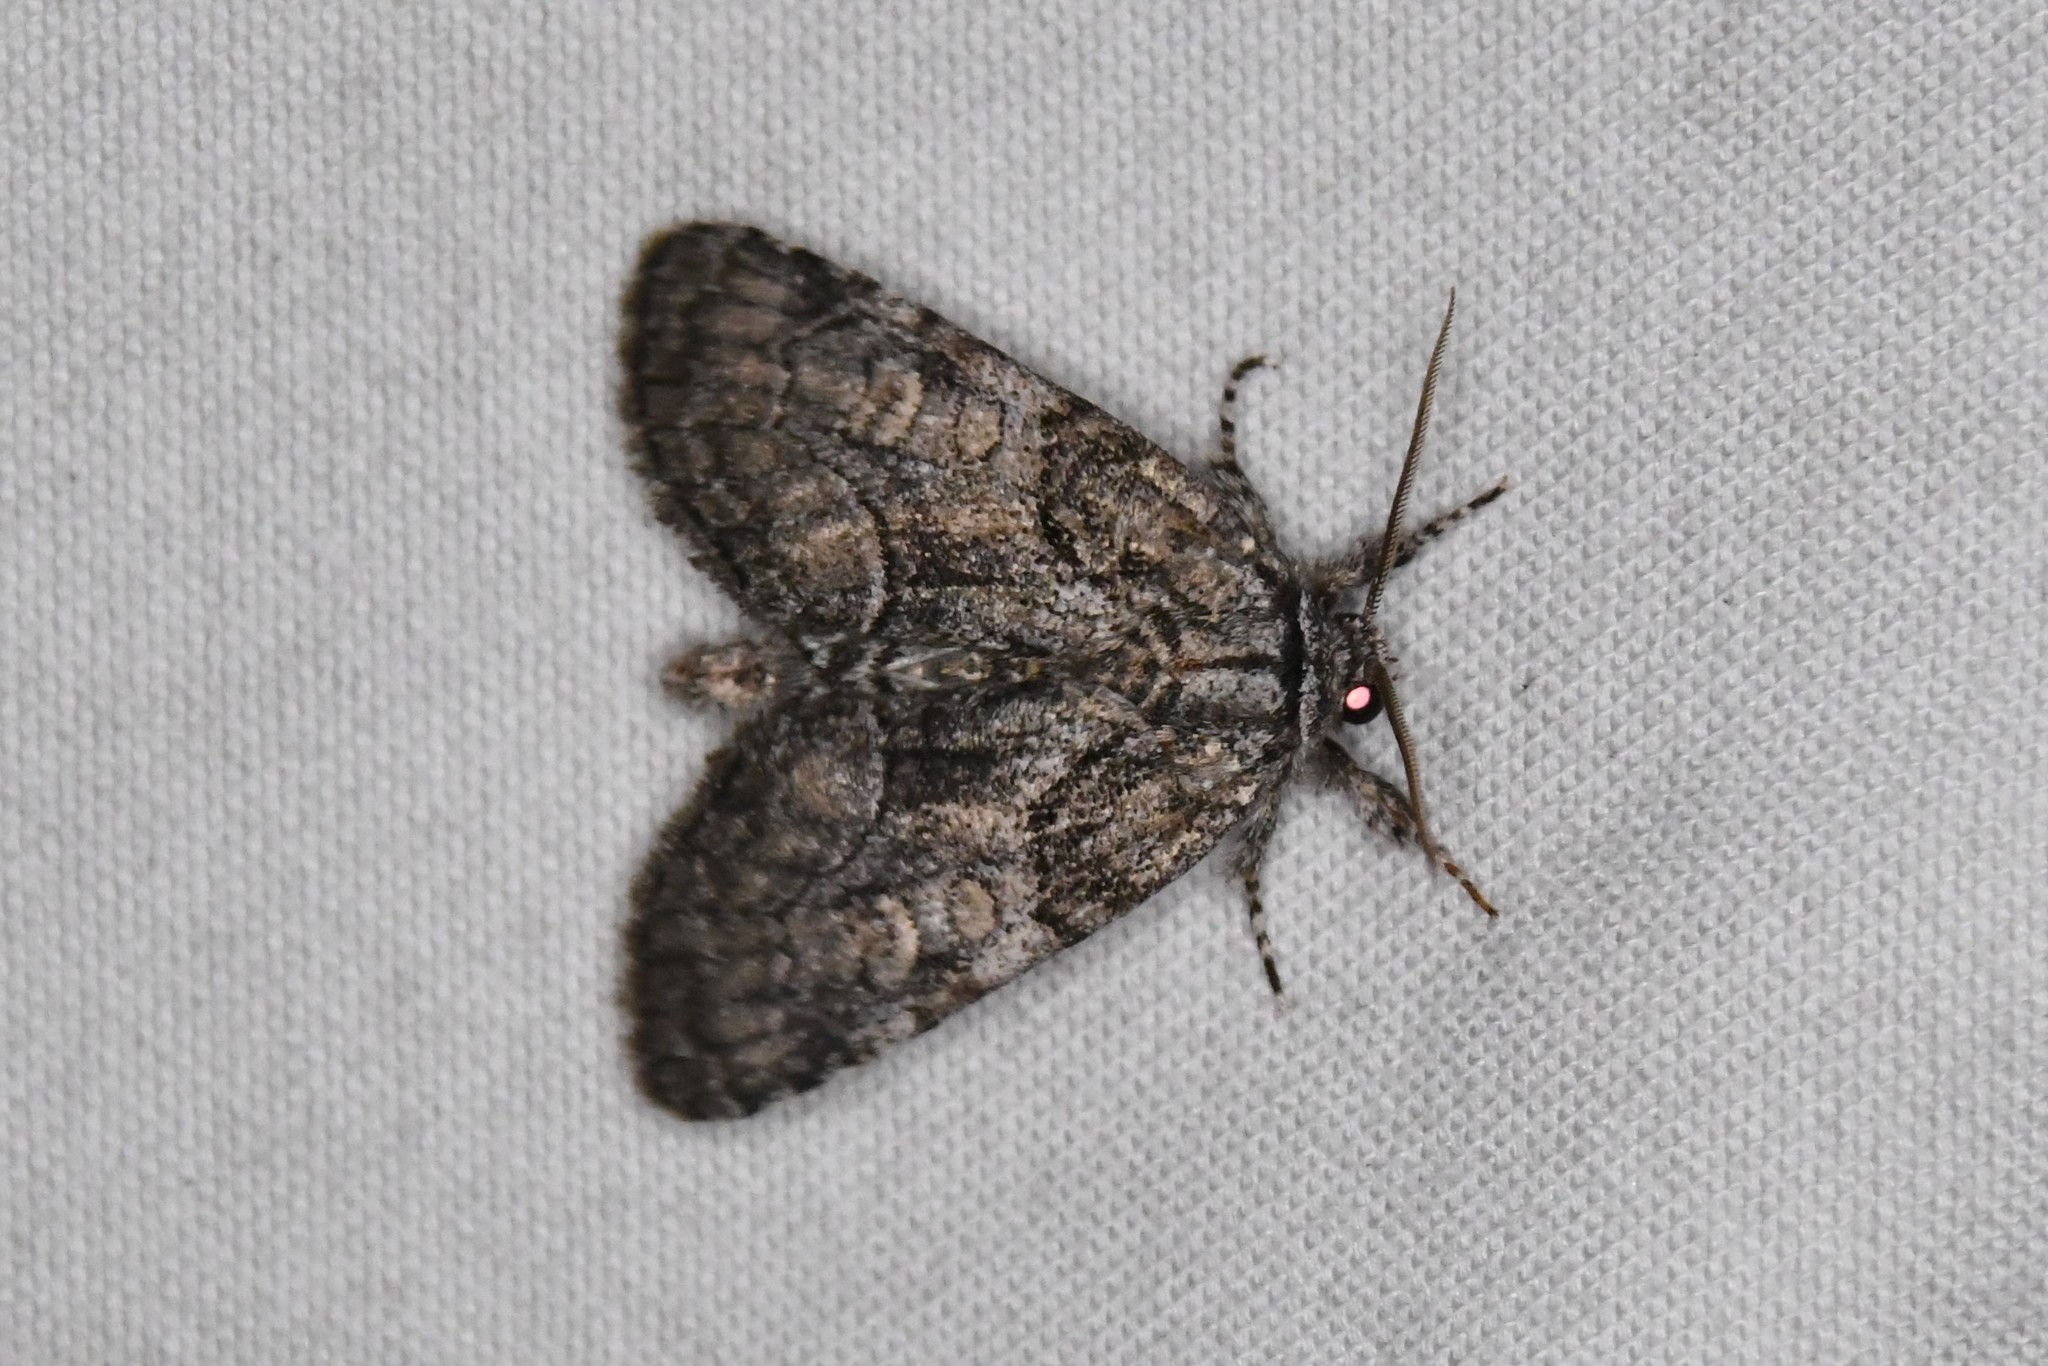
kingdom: Animalia
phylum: Arthropoda
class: Insecta
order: Lepidoptera
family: Noctuidae
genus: Raphia
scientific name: Raphia frater
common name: Brother
